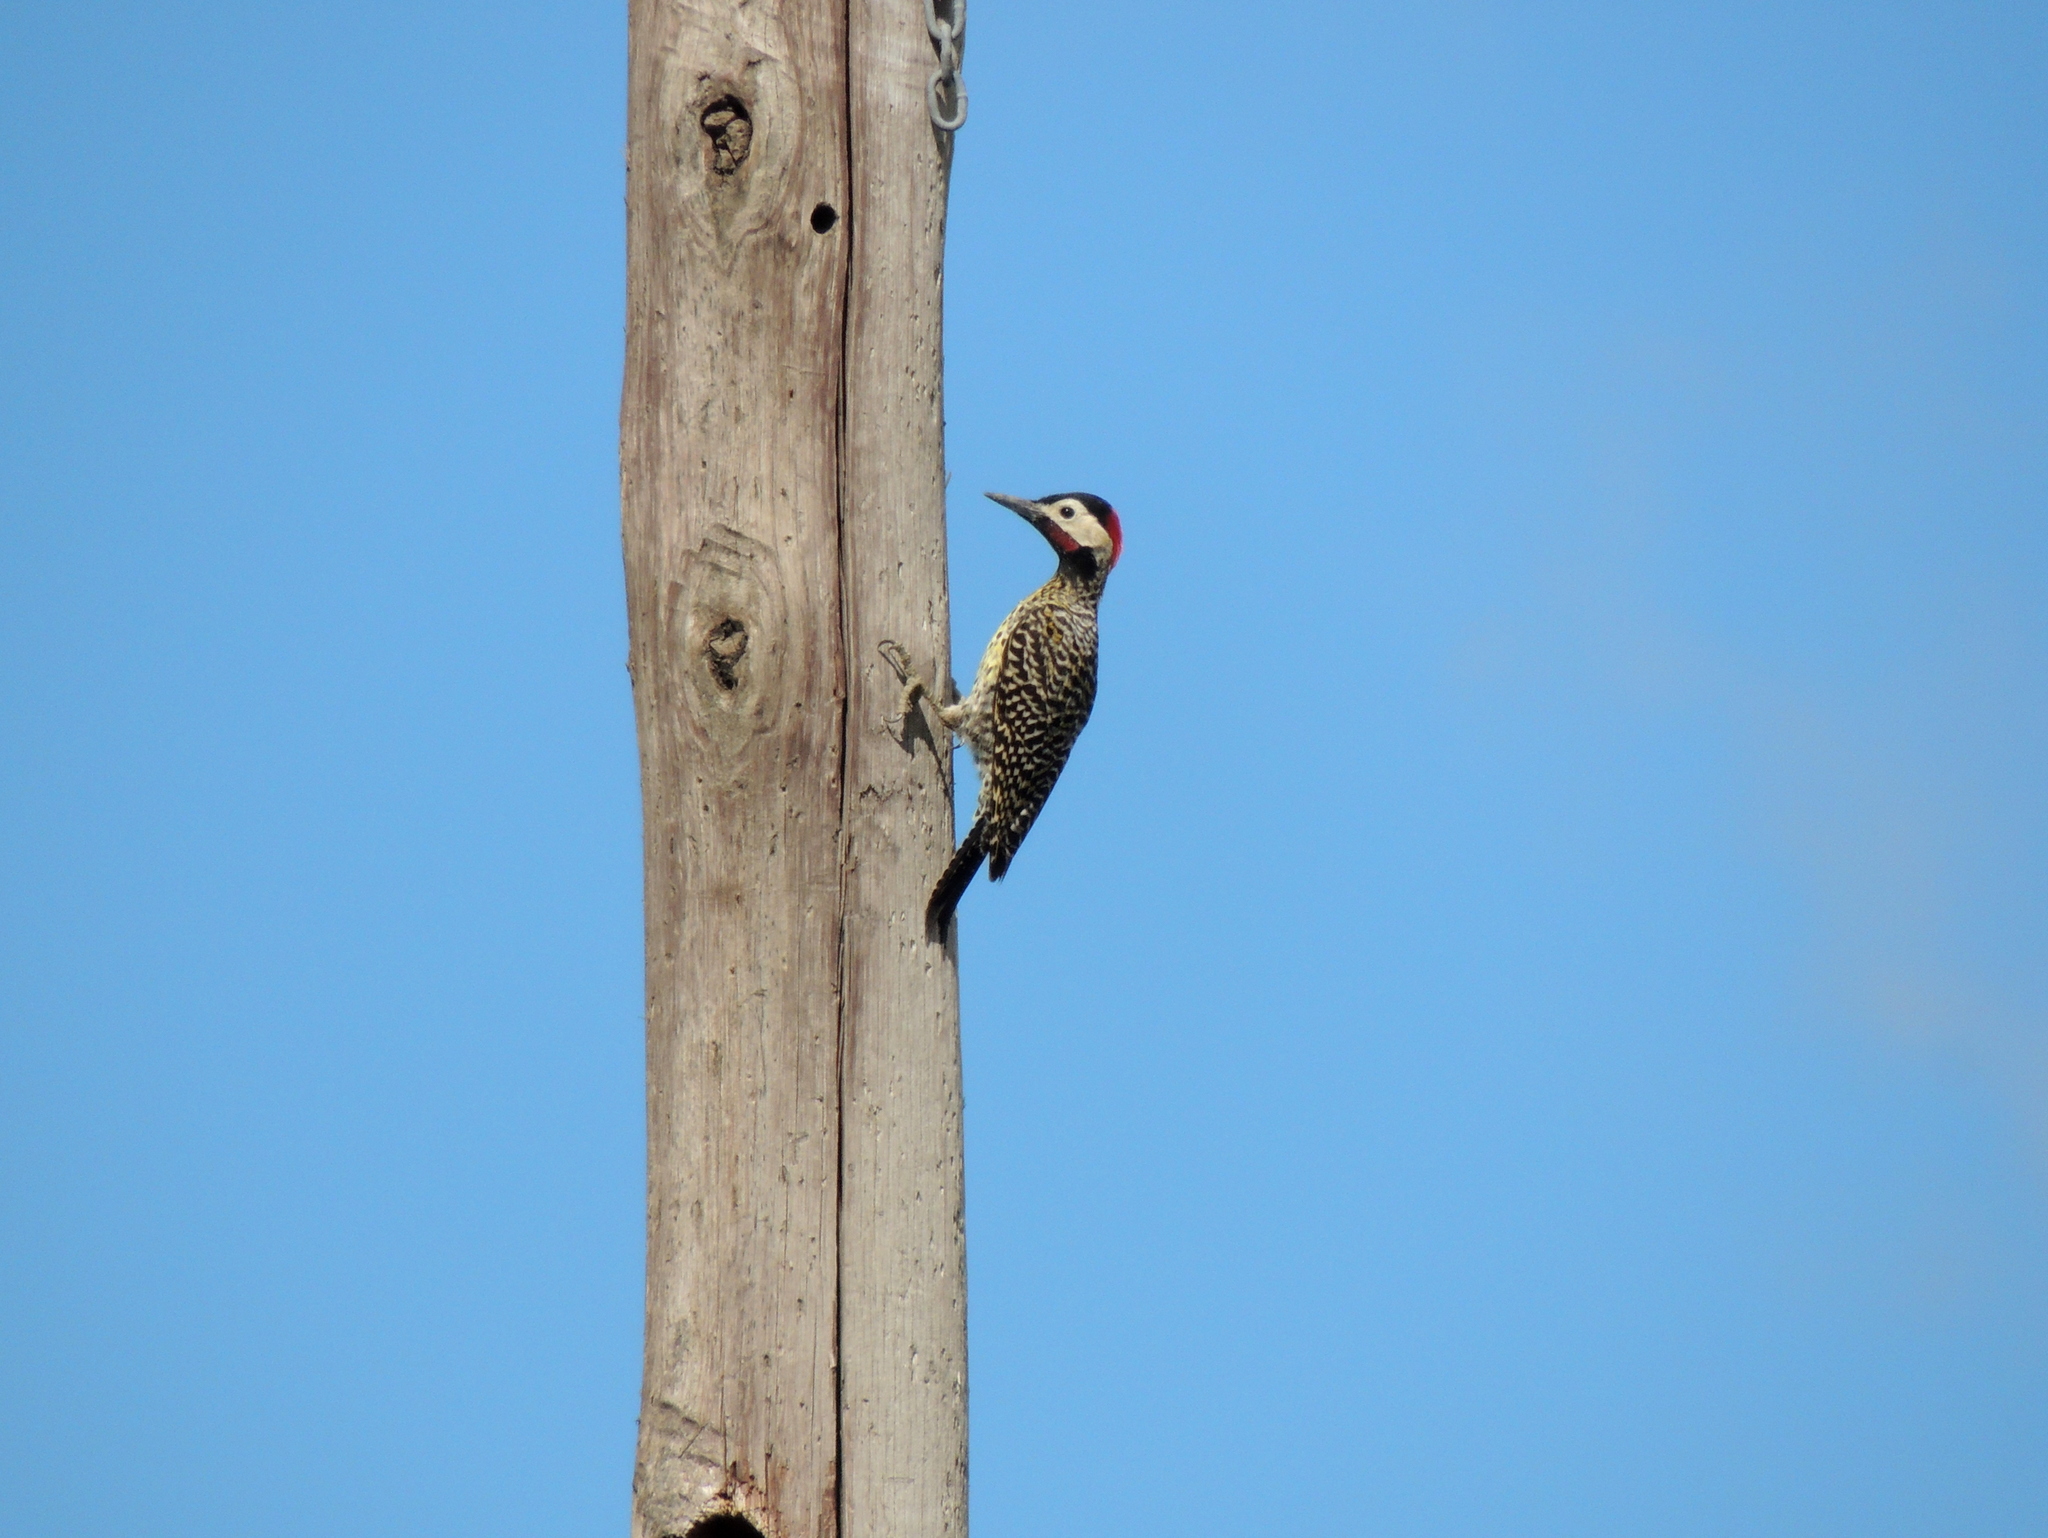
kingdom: Animalia
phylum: Chordata
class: Aves
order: Piciformes
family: Picidae
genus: Colaptes
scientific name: Colaptes melanochloros
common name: Green-barred woodpecker
